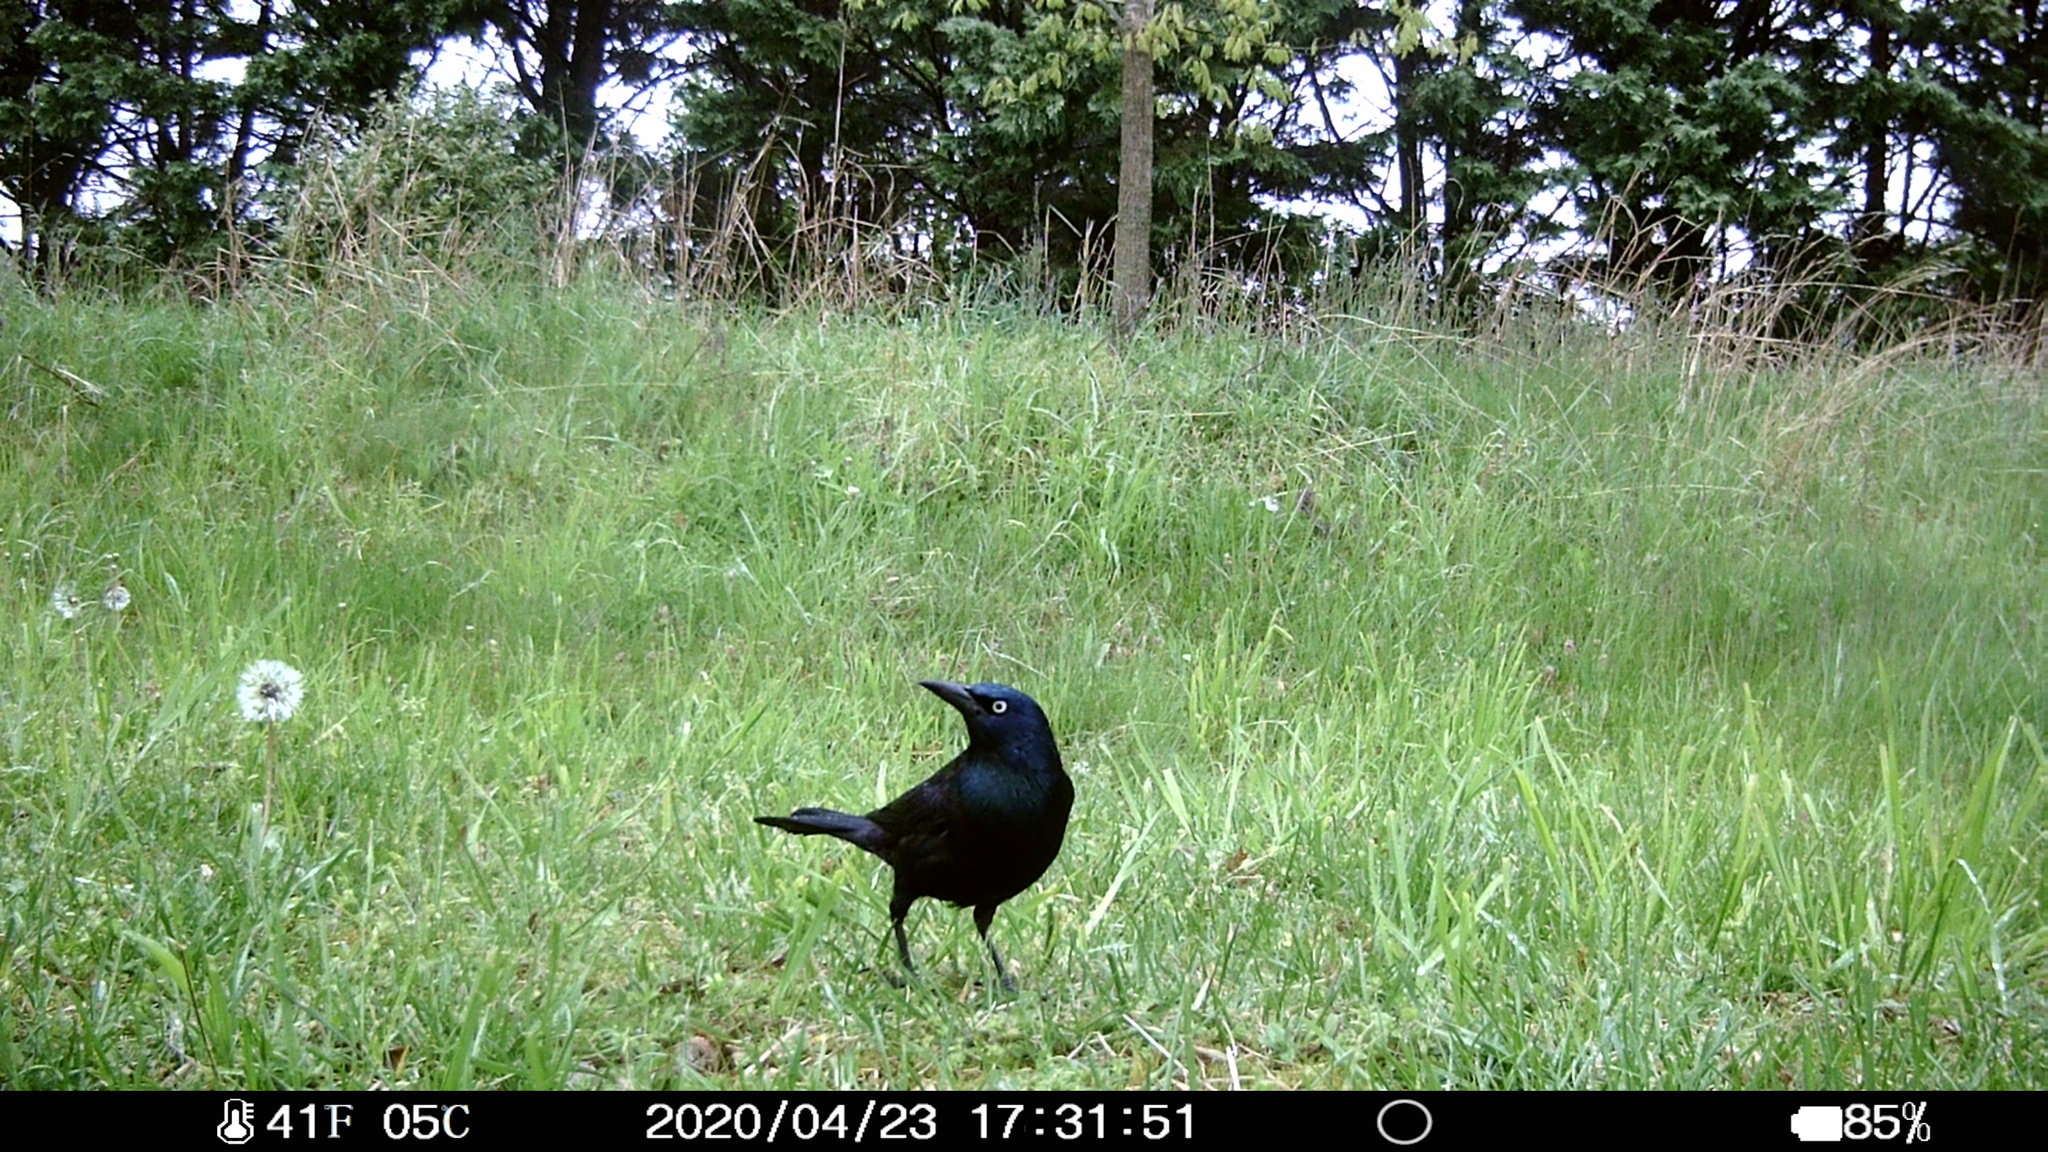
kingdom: Animalia
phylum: Chordata
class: Aves
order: Passeriformes
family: Icteridae
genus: Quiscalus
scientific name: Quiscalus quiscula
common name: Common grackle
